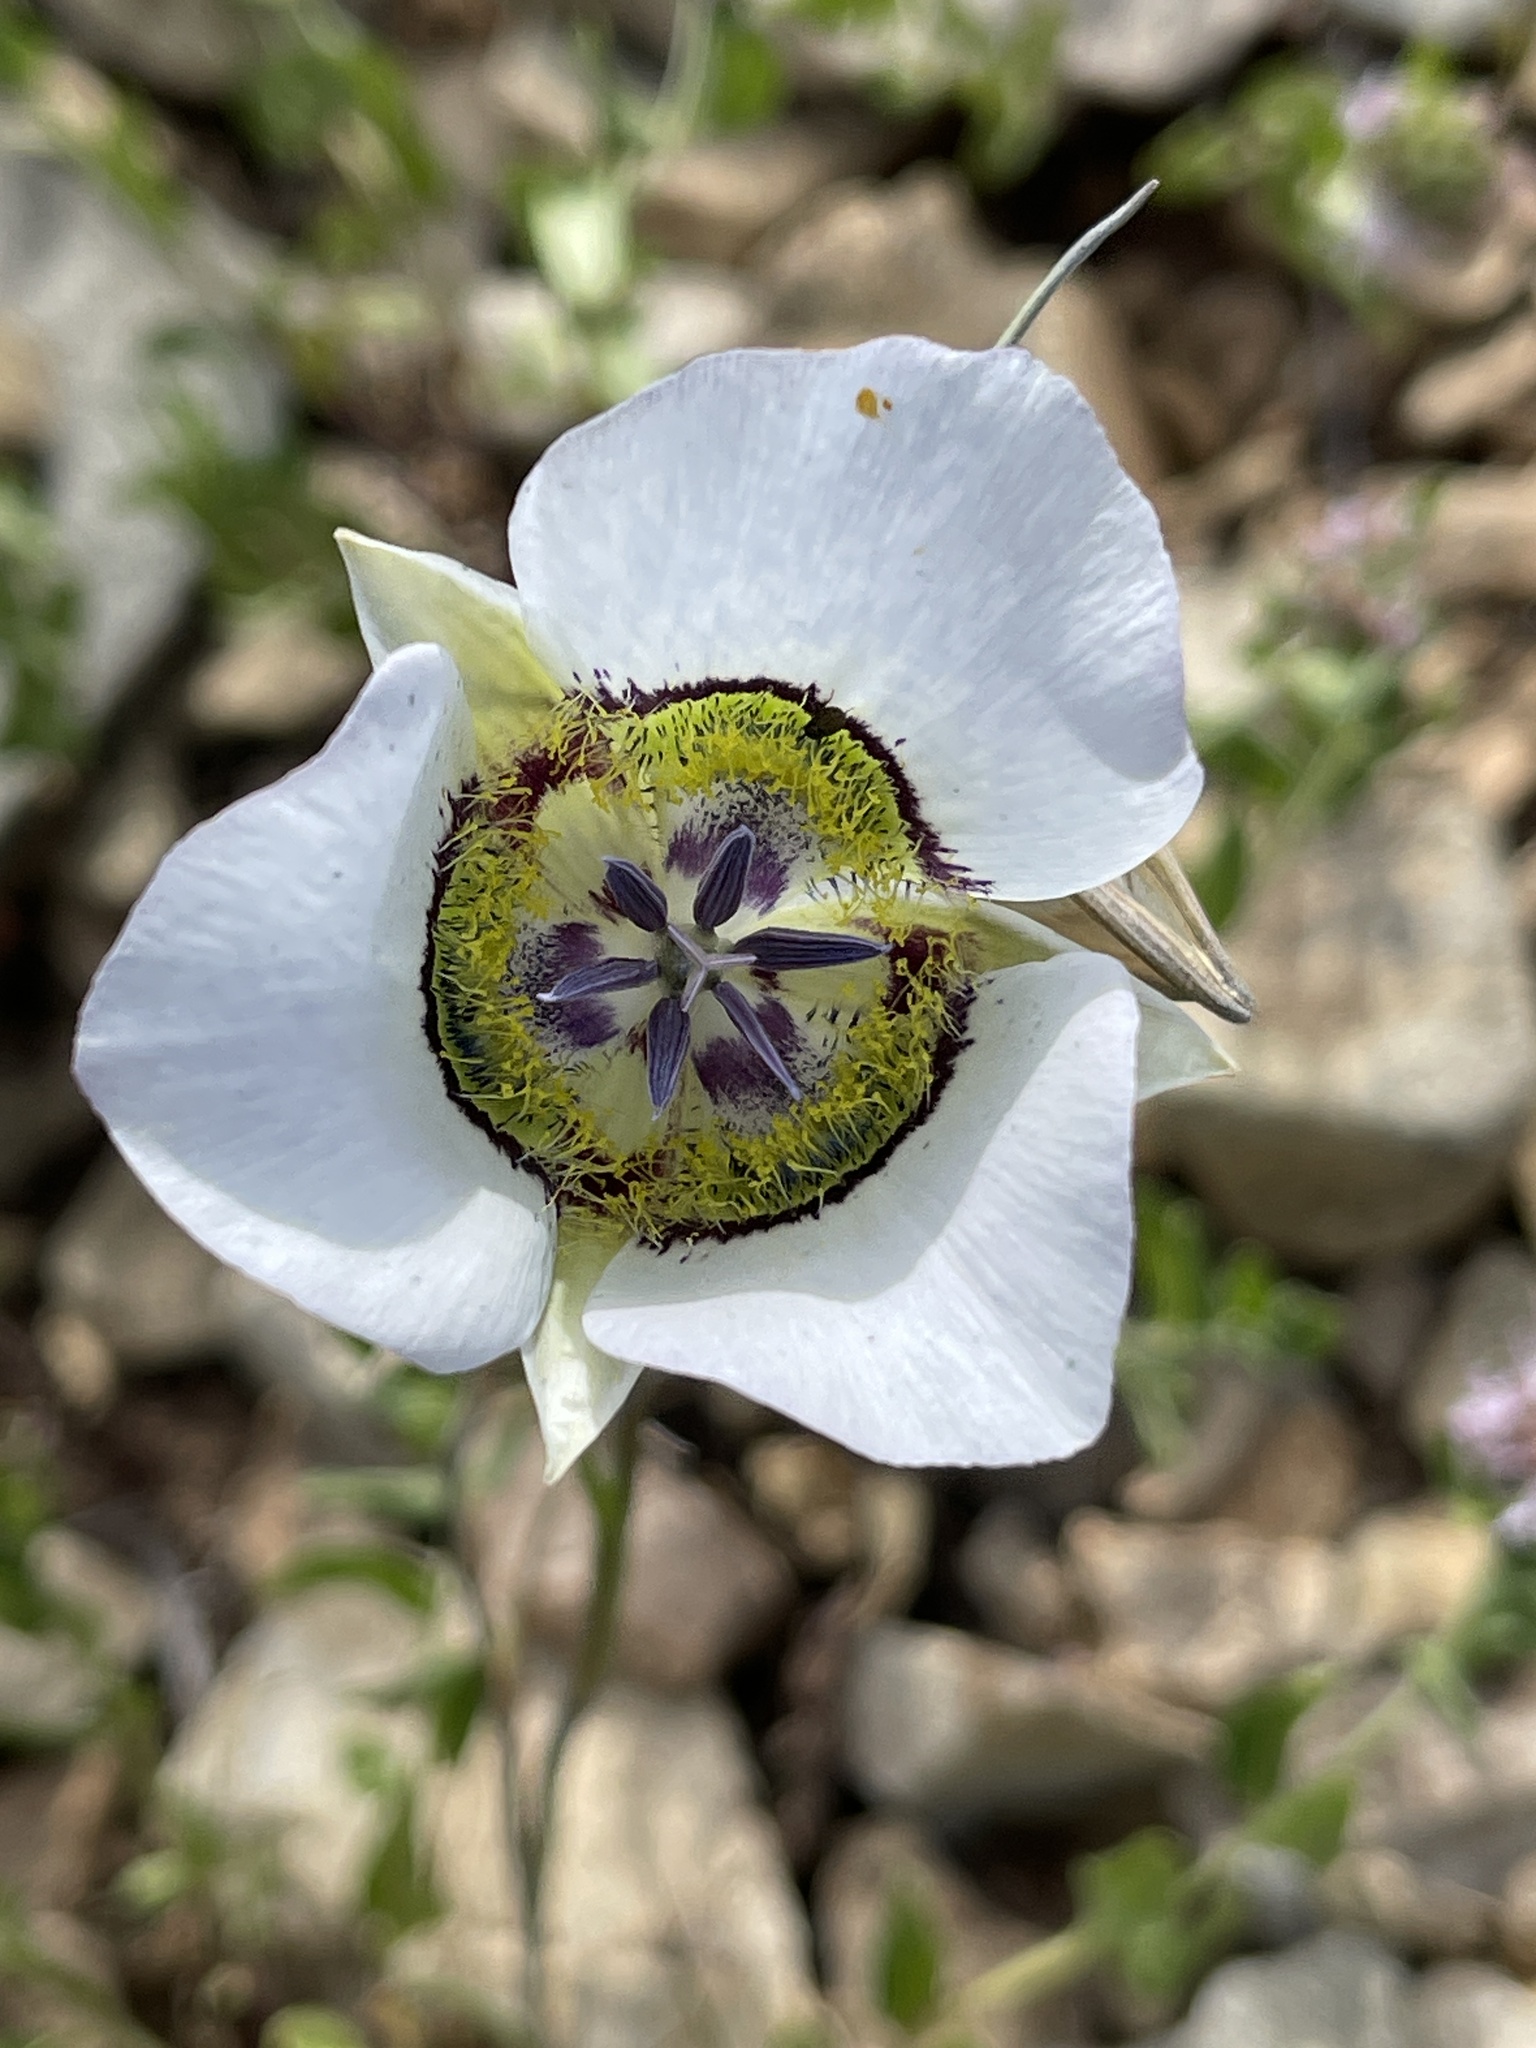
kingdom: Plantae
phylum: Tracheophyta
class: Liliopsida
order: Liliales
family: Liliaceae
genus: Calochortus
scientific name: Calochortus gunnisonii
